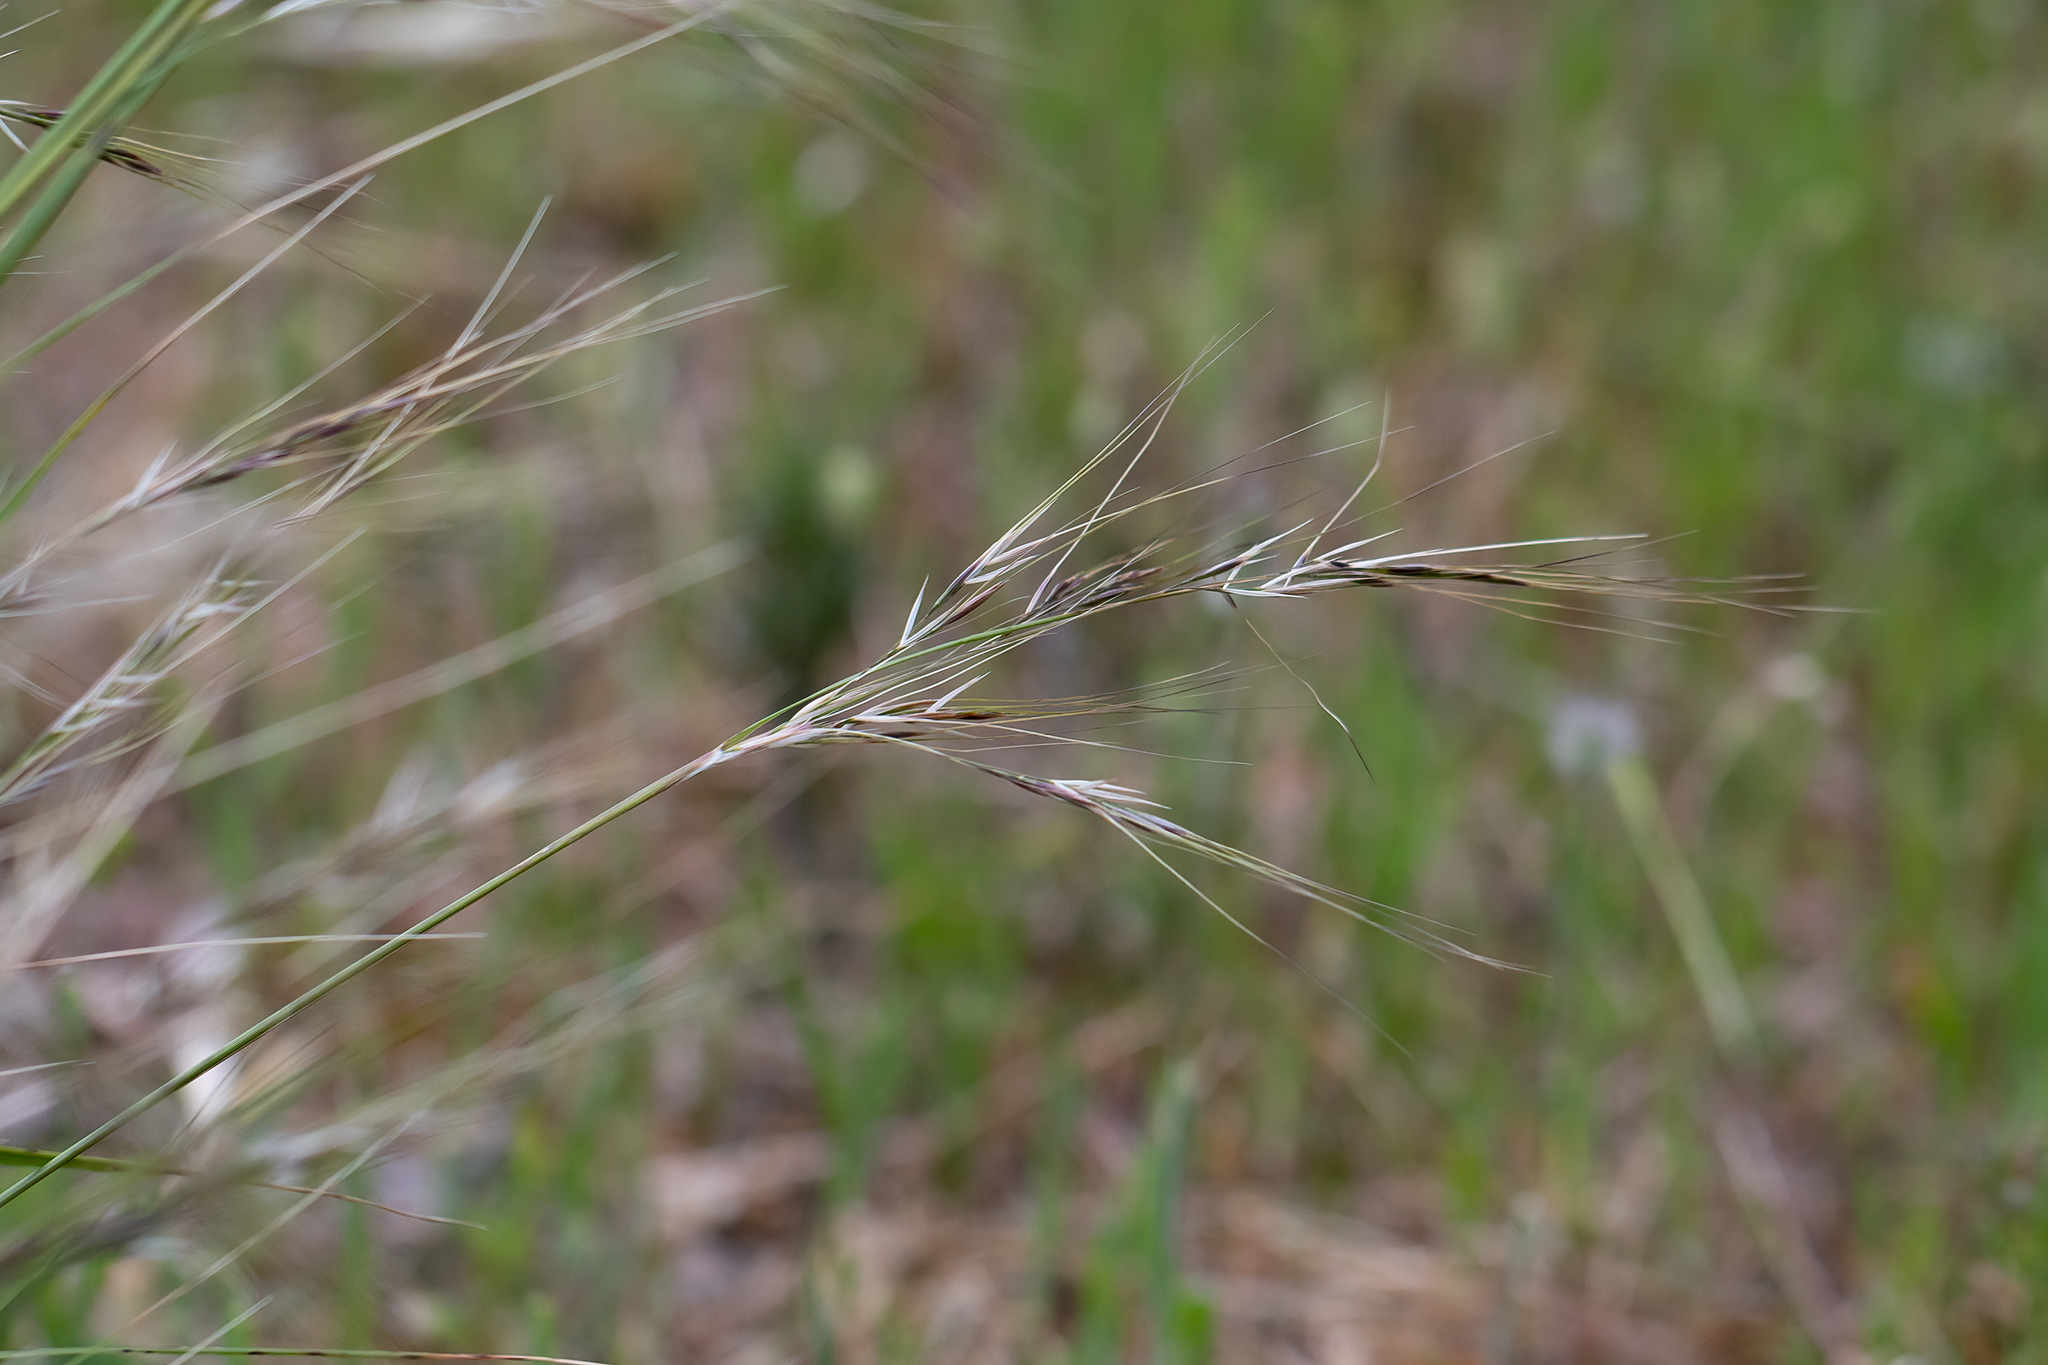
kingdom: Plantae
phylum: Tracheophyta
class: Liliopsida
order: Poales
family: Poaceae
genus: Austrostipa
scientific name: Austrostipa flavescens
